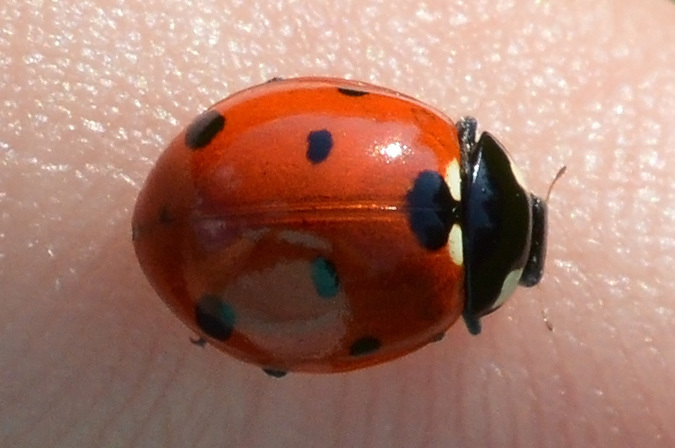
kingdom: Animalia
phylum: Arthropoda
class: Insecta
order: Coleoptera
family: Coccinellidae
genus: Coccinella
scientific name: Coccinella septempunctata
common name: Sevenspotted lady beetle
